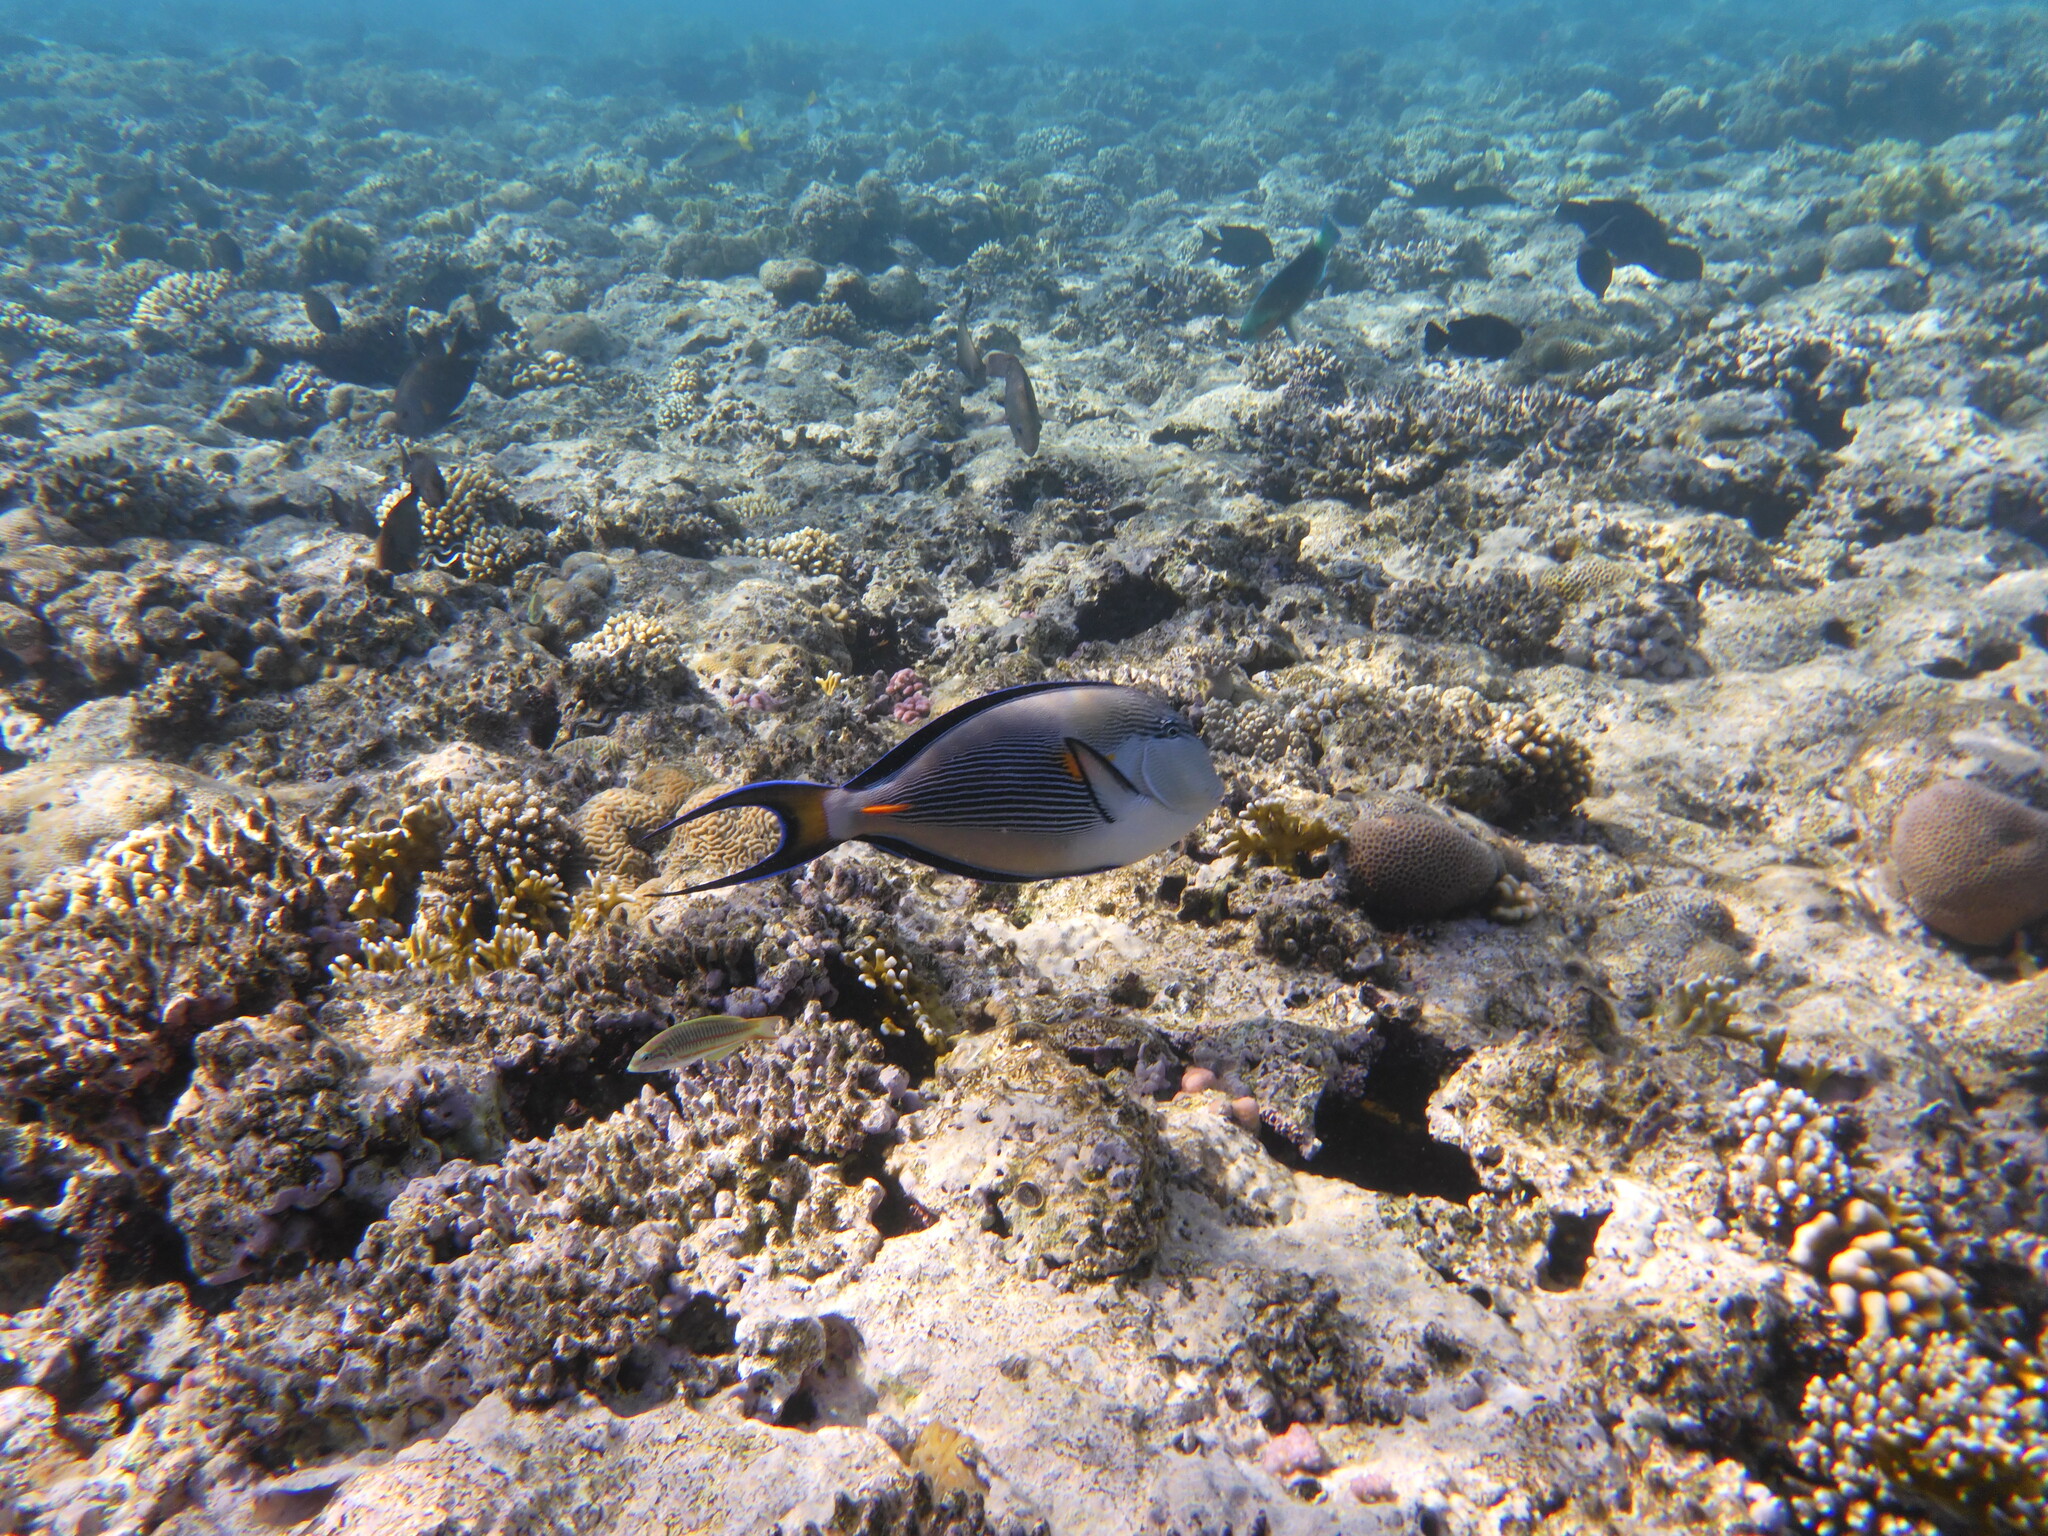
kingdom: Animalia
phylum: Chordata
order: Perciformes
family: Acanthuridae
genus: Acanthurus
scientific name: Acanthurus sohal
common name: Red sea surgeonfish
